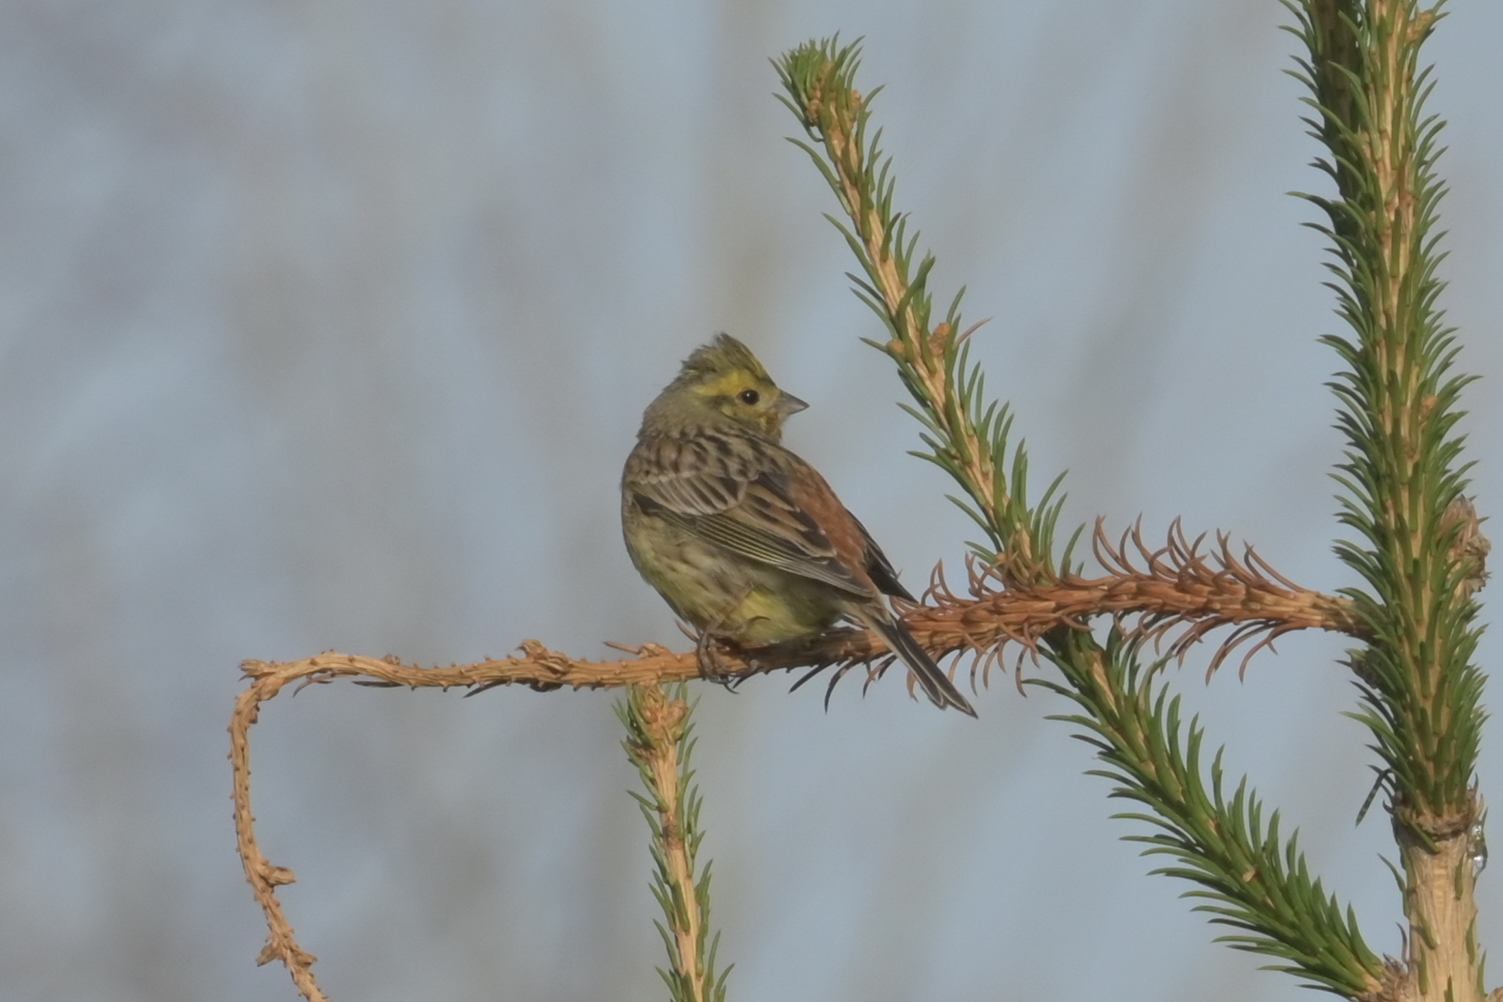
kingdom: Animalia
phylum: Chordata
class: Aves
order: Passeriformes
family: Emberizidae
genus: Emberiza
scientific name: Emberiza citrinella
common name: Yellowhammer
